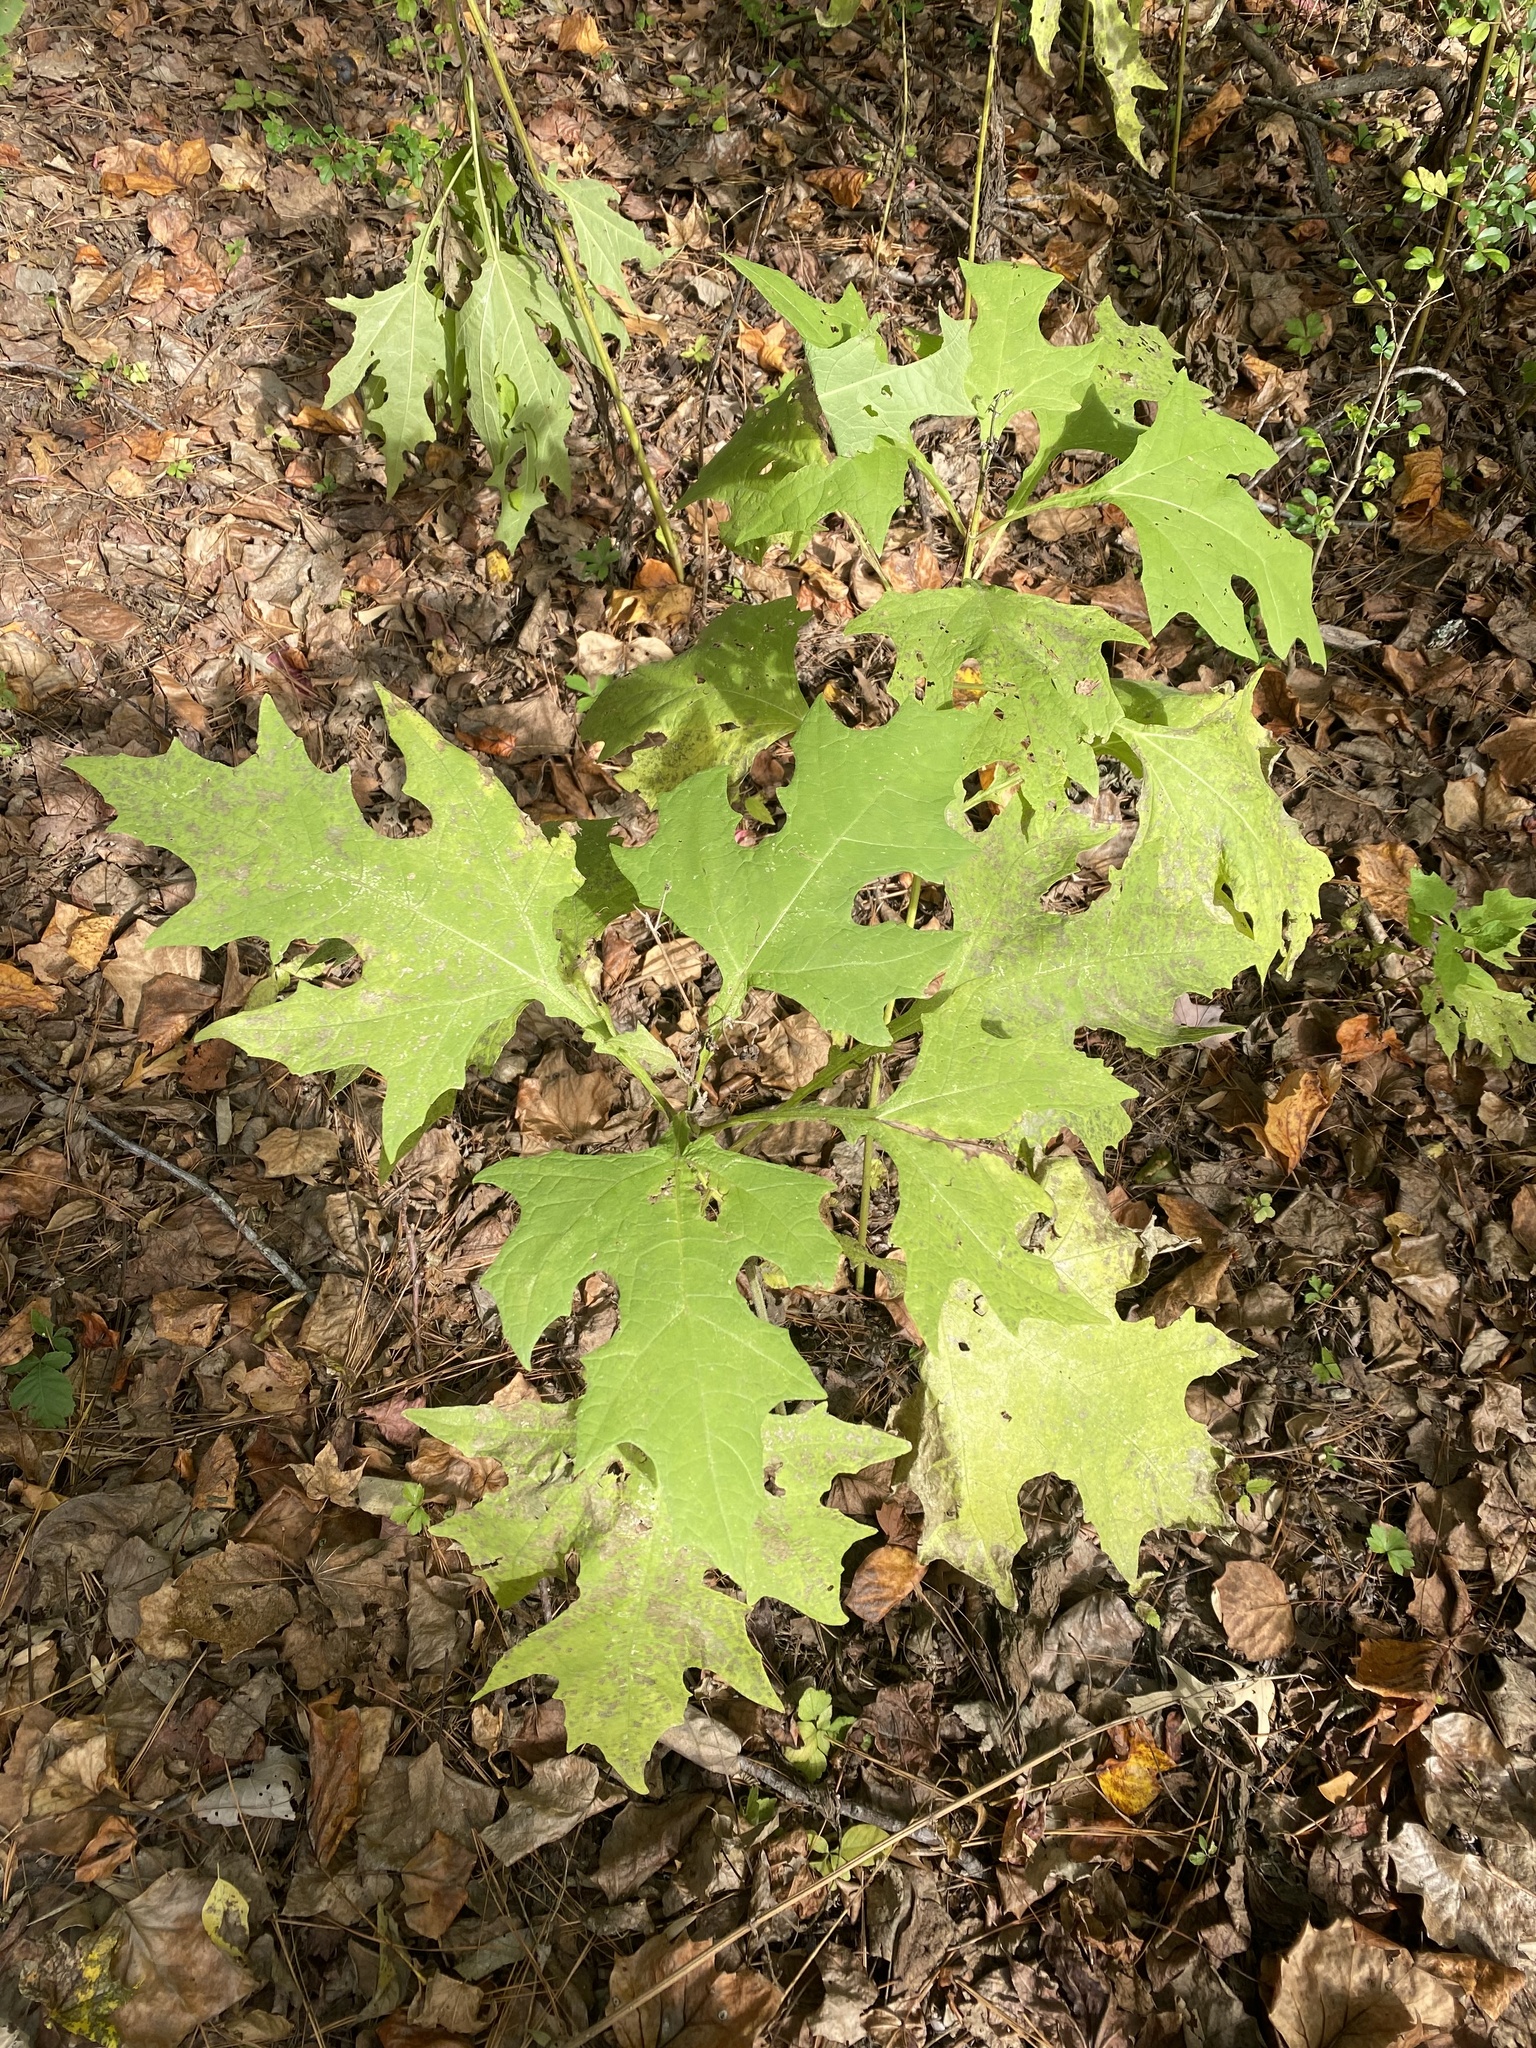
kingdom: Plantae
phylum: Tracheophyta
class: Magnoliopsida
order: Asterales
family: Asteraceae
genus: Smallanthus
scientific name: Smallanthus uvedalia
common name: Bear's-foot
